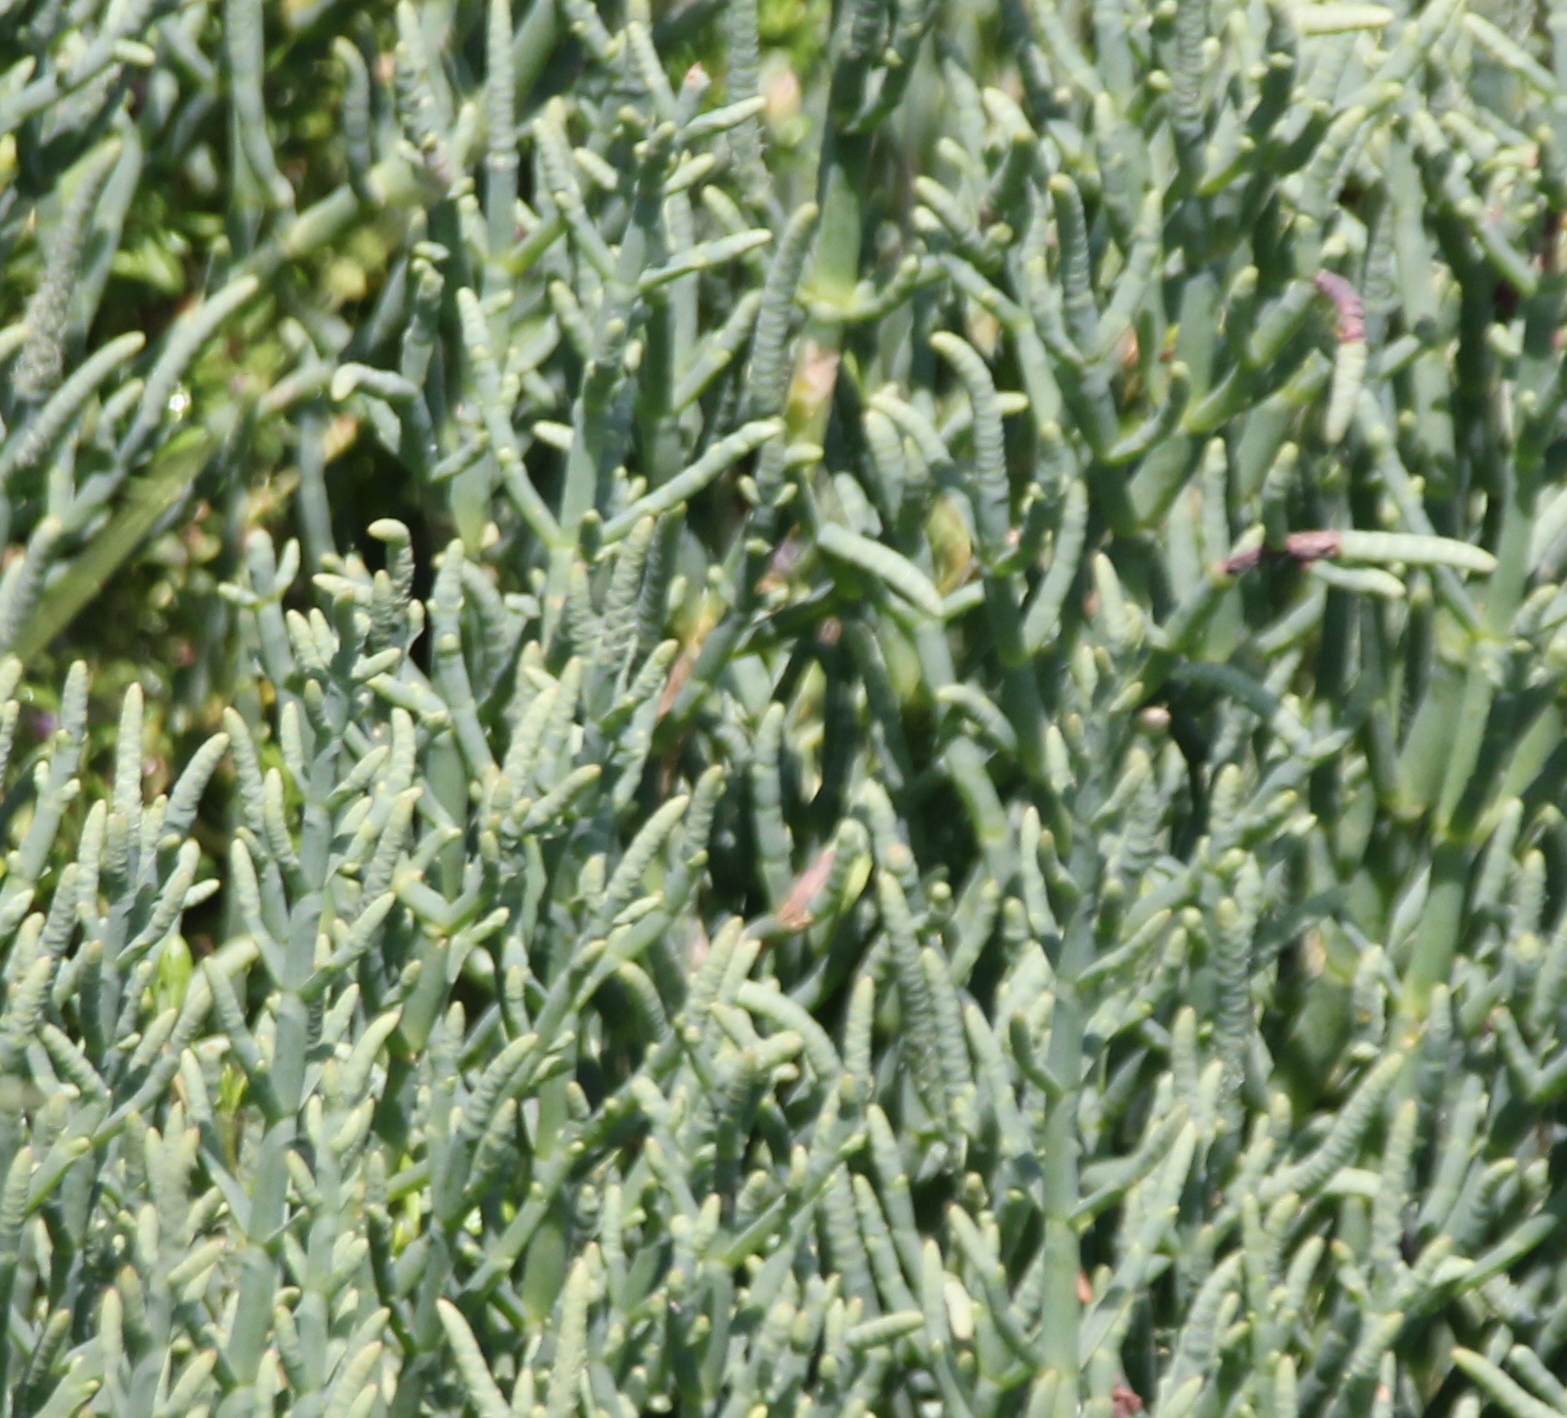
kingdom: Plantae
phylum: Tracheophyta
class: Magnoliopsida
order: Caryophyllales
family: Amaranthaceae
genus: Salicornia
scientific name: Salicornia pacifica
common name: Pacific glasswort
